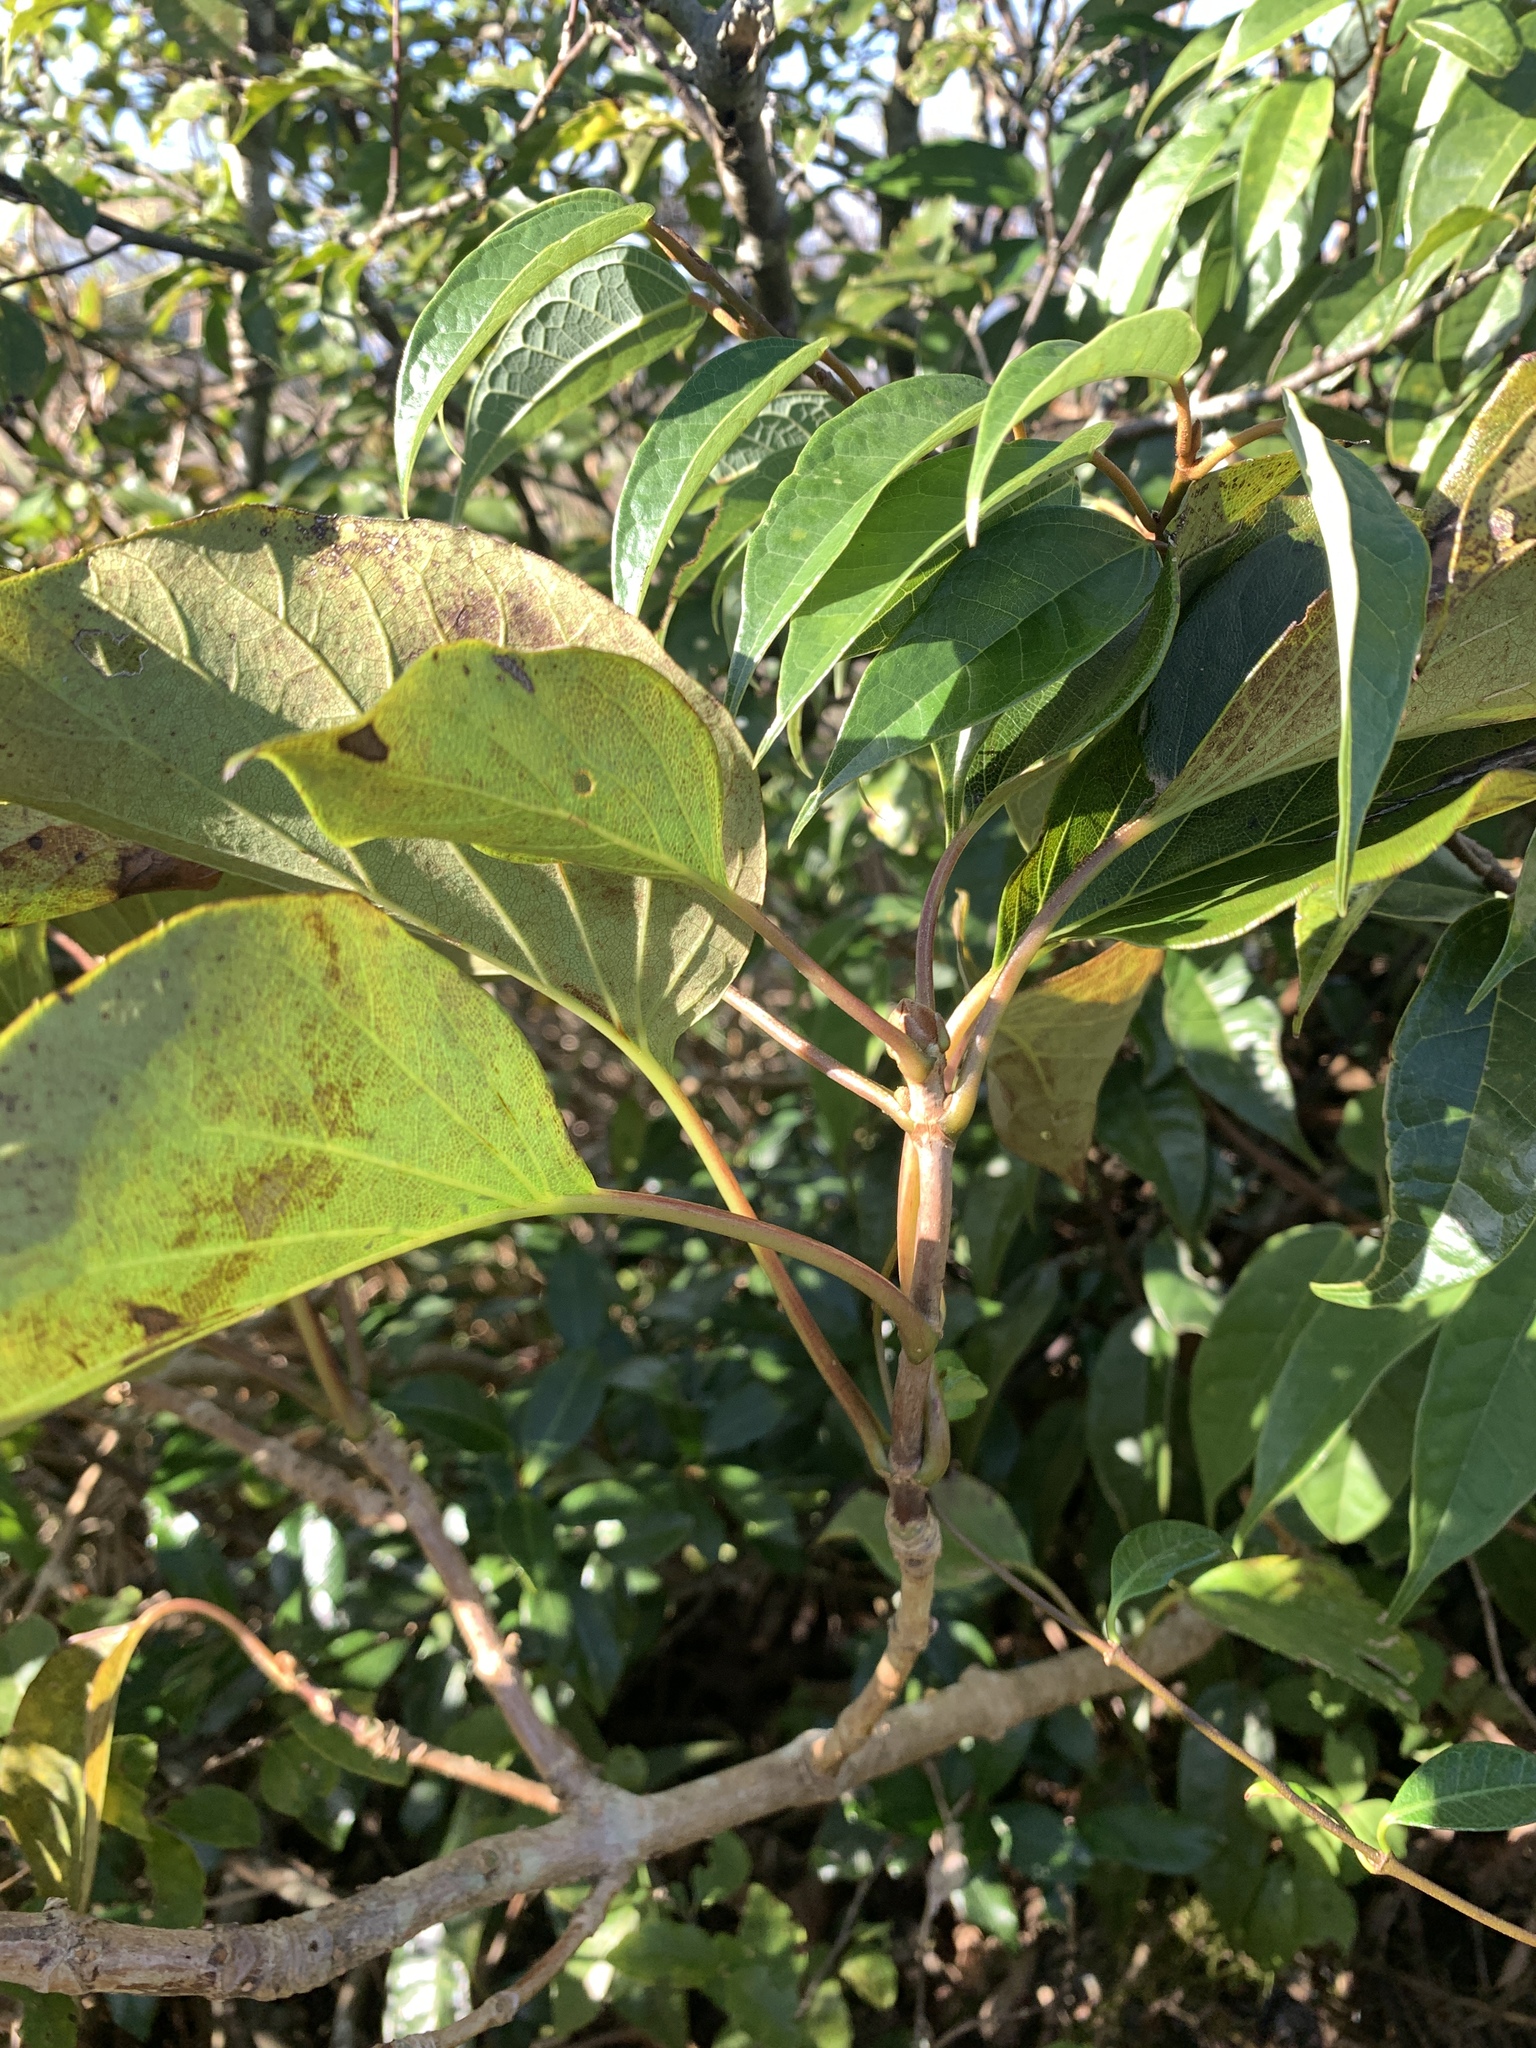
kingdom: Plantae
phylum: Tracheophyta
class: Magnoliopsida
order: Cornales
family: Hydrangeaceae
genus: Hydrangea
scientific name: Hydrangea fauriei
